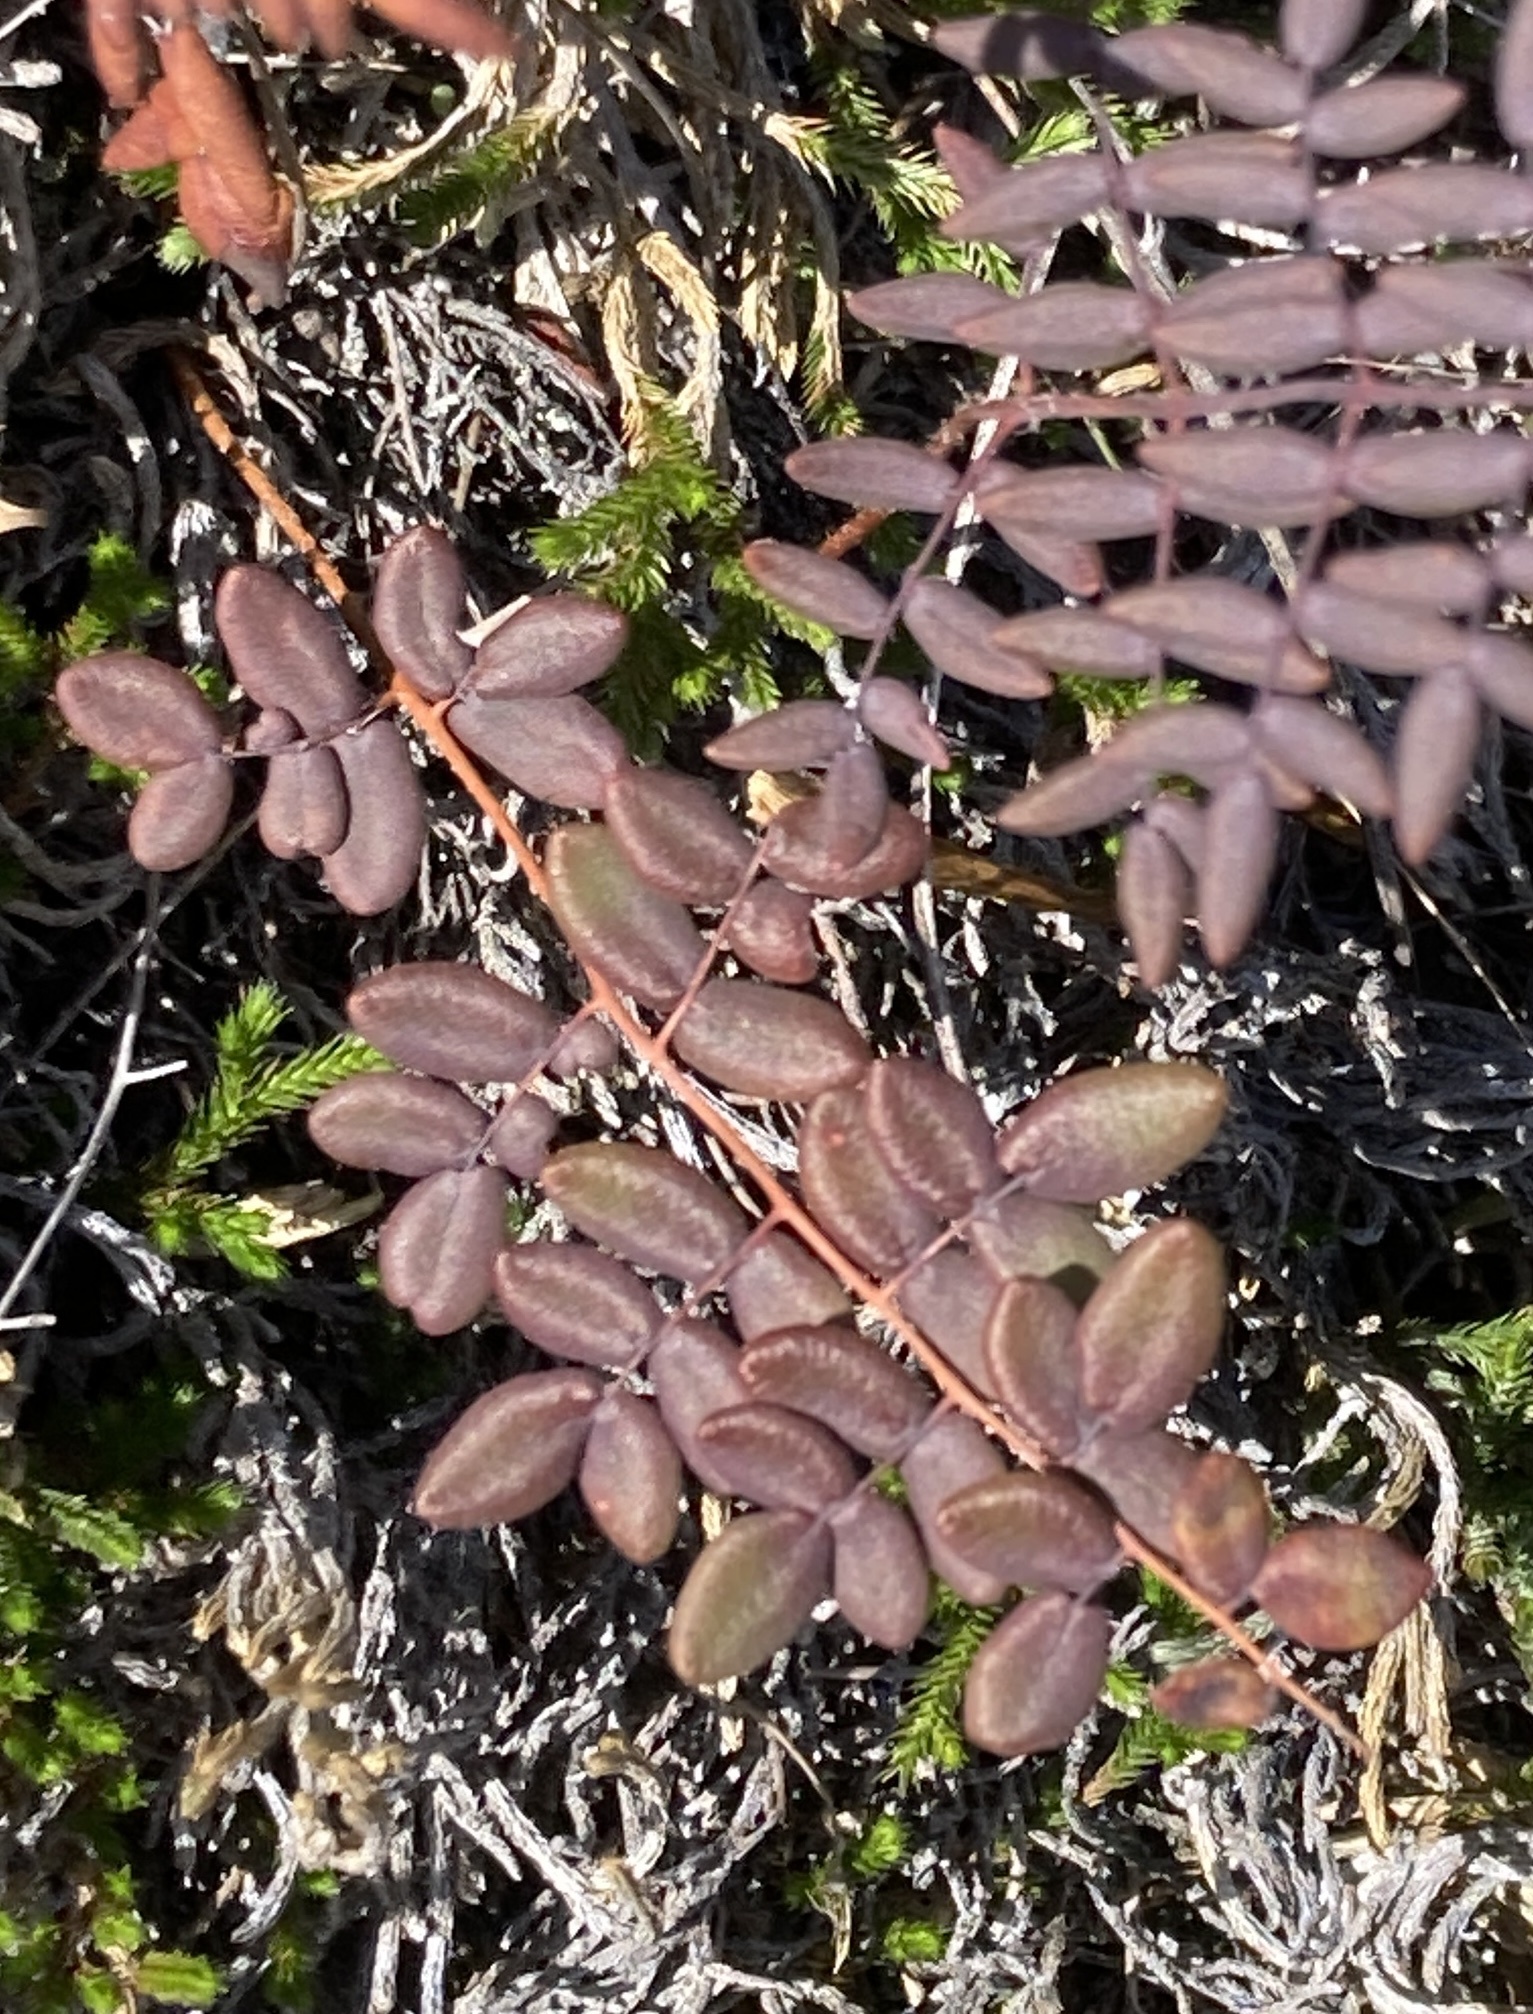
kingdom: Plantae
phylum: Tracheophyta
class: Polypodiopsida
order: Polypodiales
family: Pteridaceae
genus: Pellaea
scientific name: Pellaea andromedifolia
